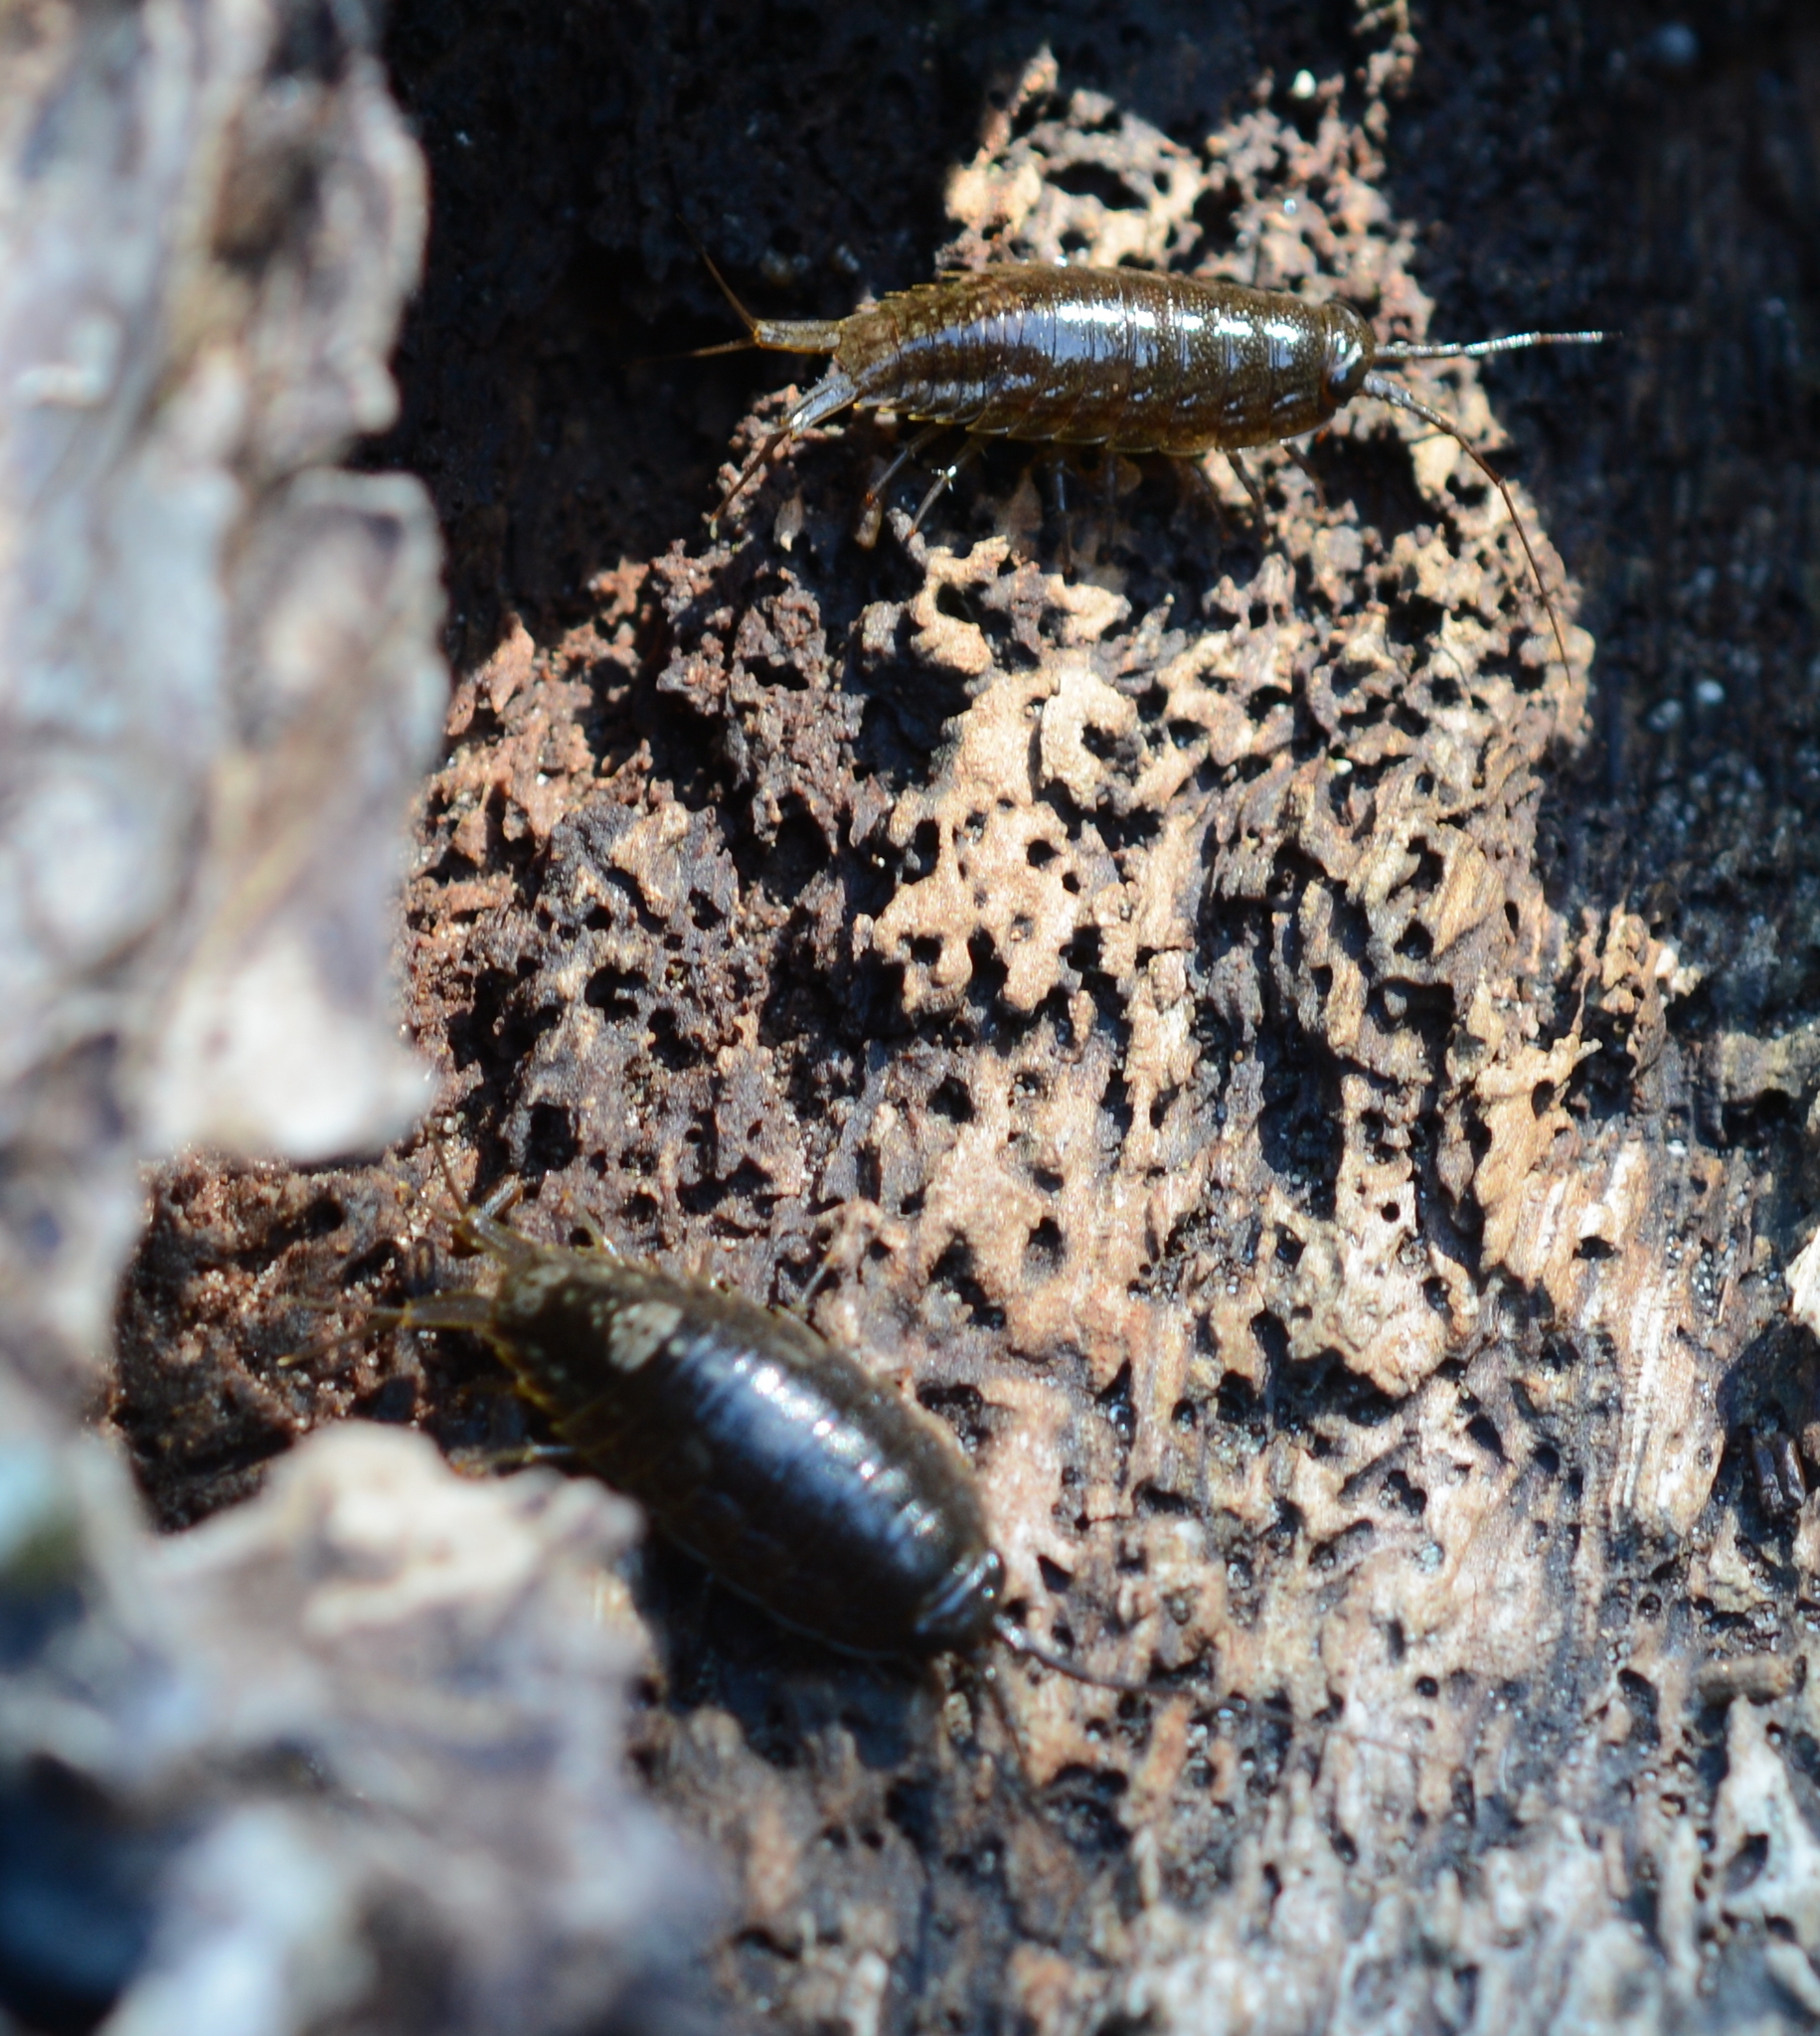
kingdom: Animalia
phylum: Arthropoda
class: Malacostraca
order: Isopoda
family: Ligiidae
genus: Ligia
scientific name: Ligia occidentalis
